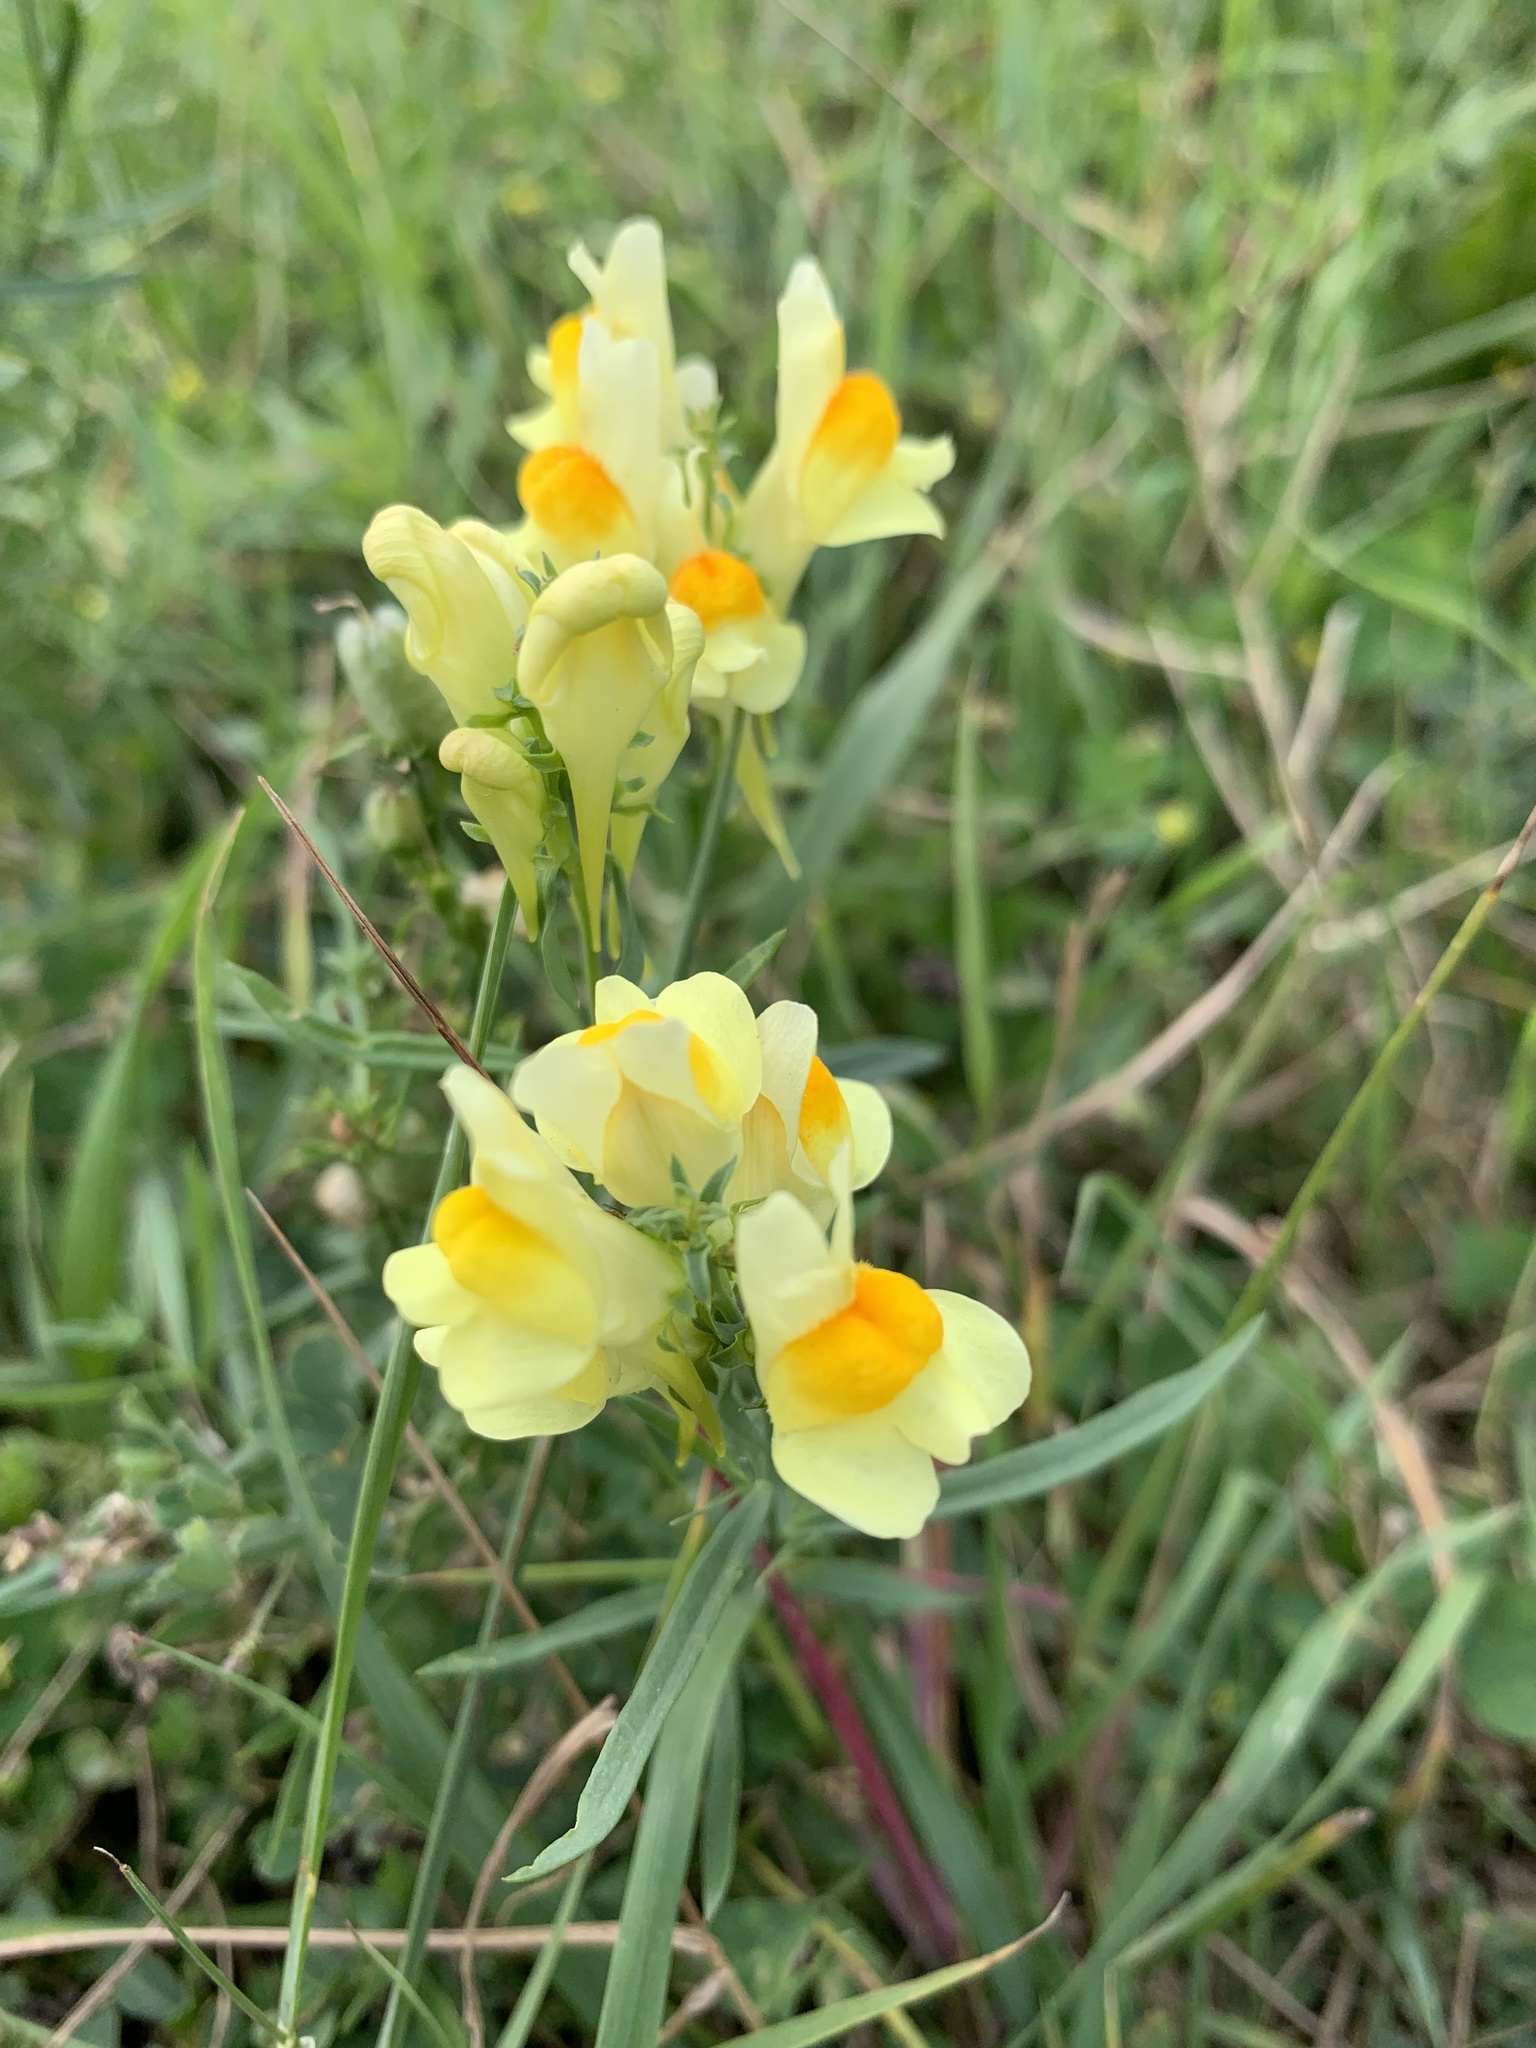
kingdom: Plantae
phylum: Tracheophyta
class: Magnoliopsida
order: Lamiales
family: Plantaginaceae
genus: Linaria
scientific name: Linaria vulgaris
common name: Butter and eggs
